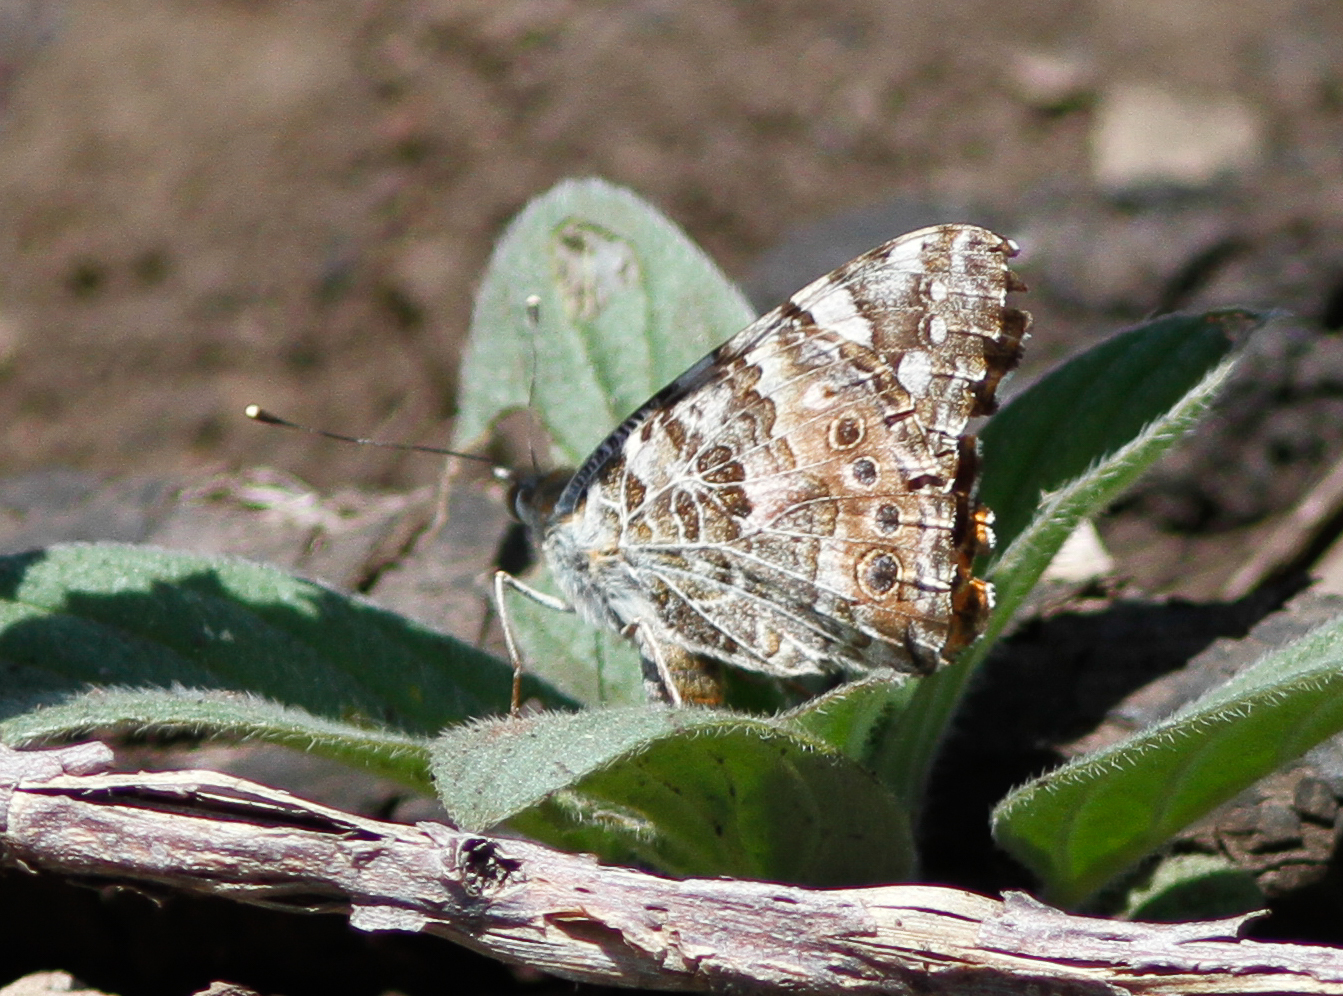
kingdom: Animalia
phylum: Arthropoda
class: Insecta
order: Lepidoptera
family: Nymphalidae
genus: Vanessa
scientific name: Vanessa cardui
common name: Painted lady
